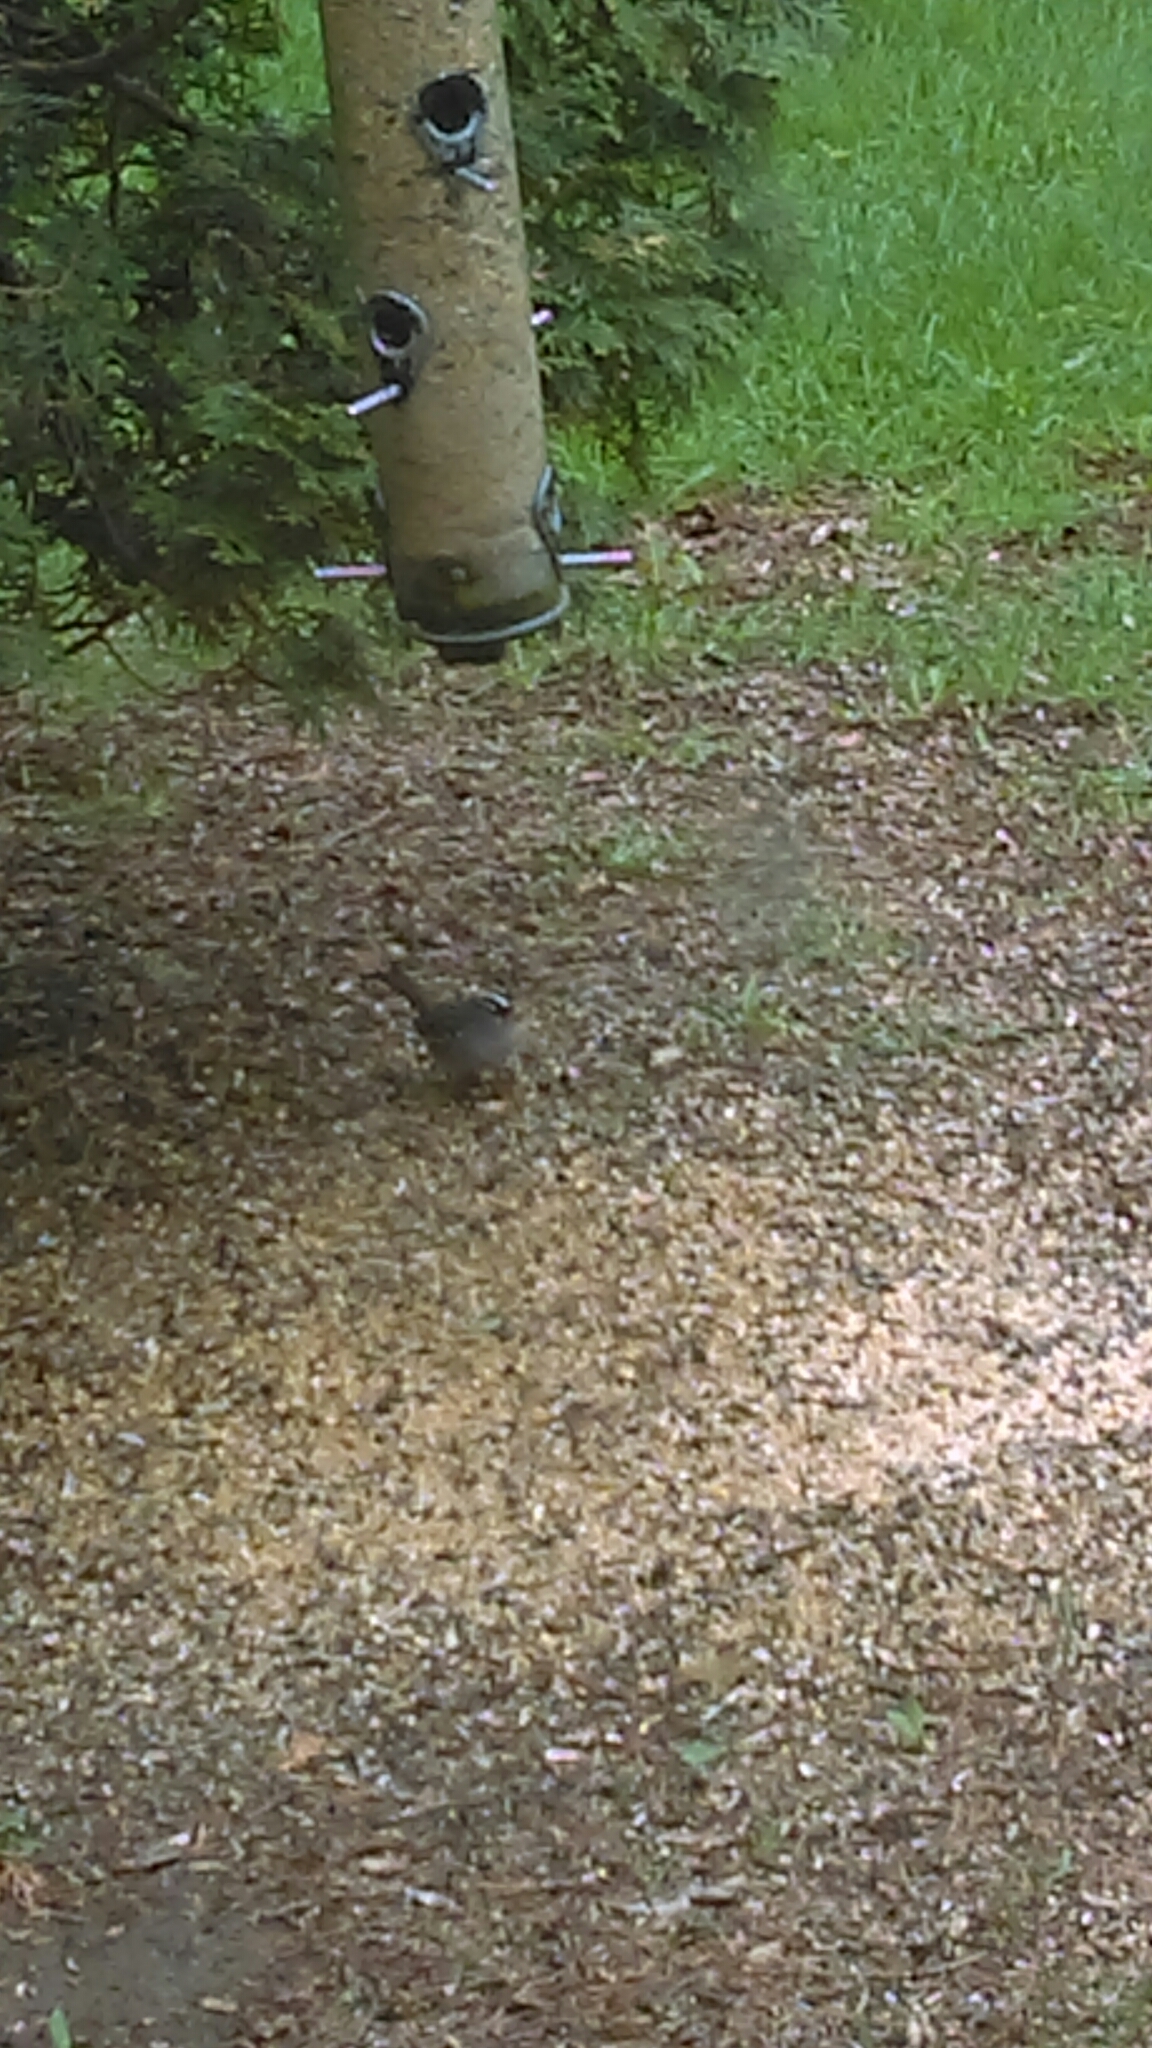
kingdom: Animalia
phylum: Chordata
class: Aves
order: Passeriformes
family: Passerellidae
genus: Zonotrichia
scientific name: Zonotrichia leucophrys
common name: White-crowned sparrow
